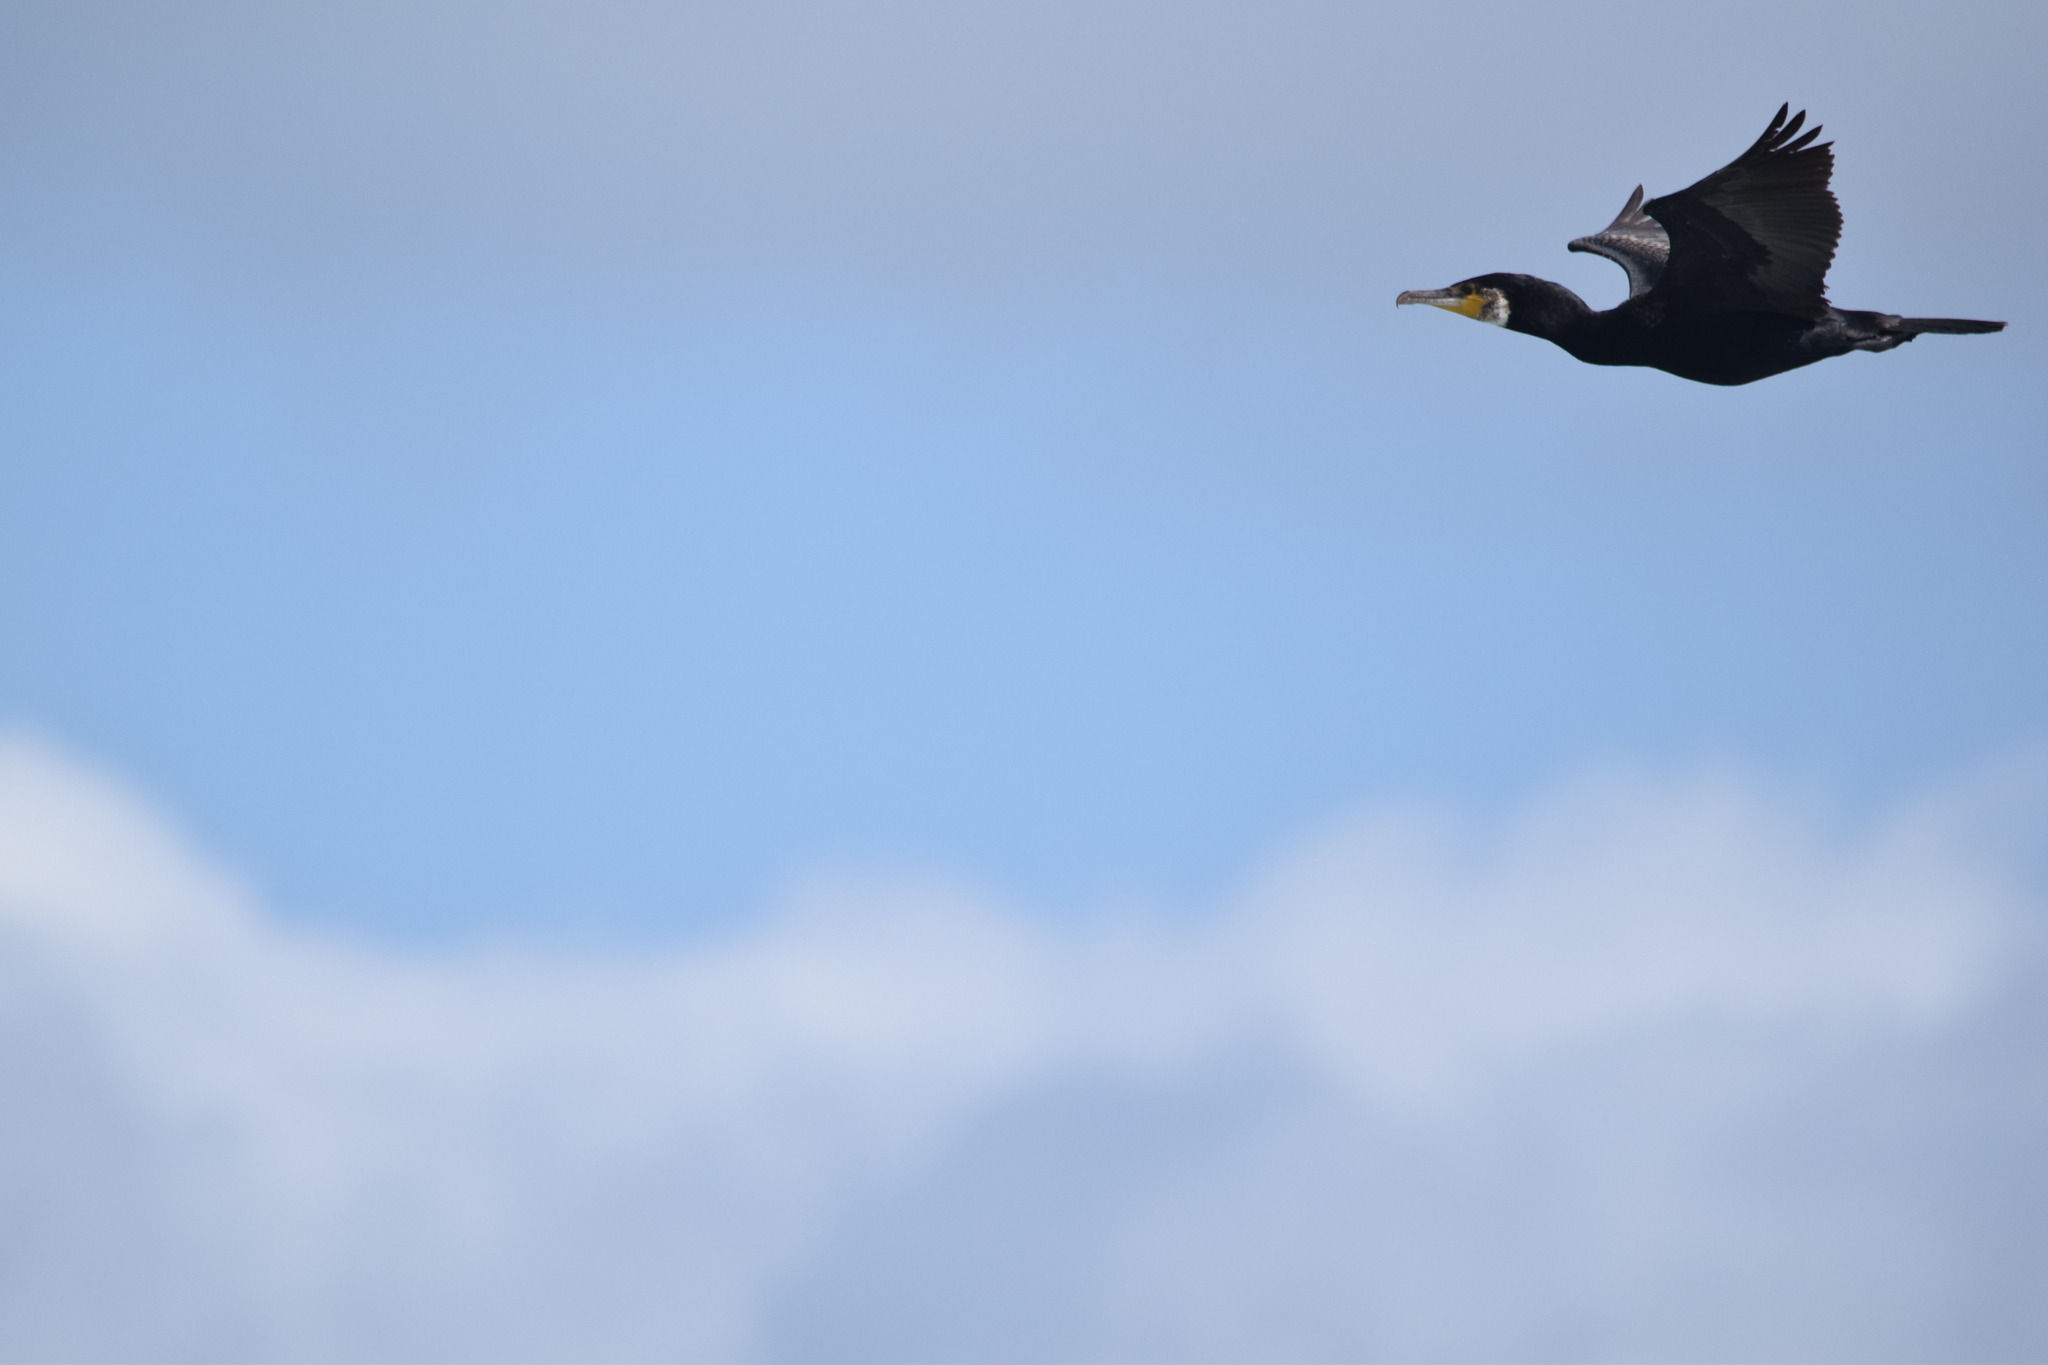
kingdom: Animalia
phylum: Chordata
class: Aves
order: Suliformes
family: Phalacrocoracidae
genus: Phalacrocorax
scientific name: Phalacrocorax carbo
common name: Great cormorant
